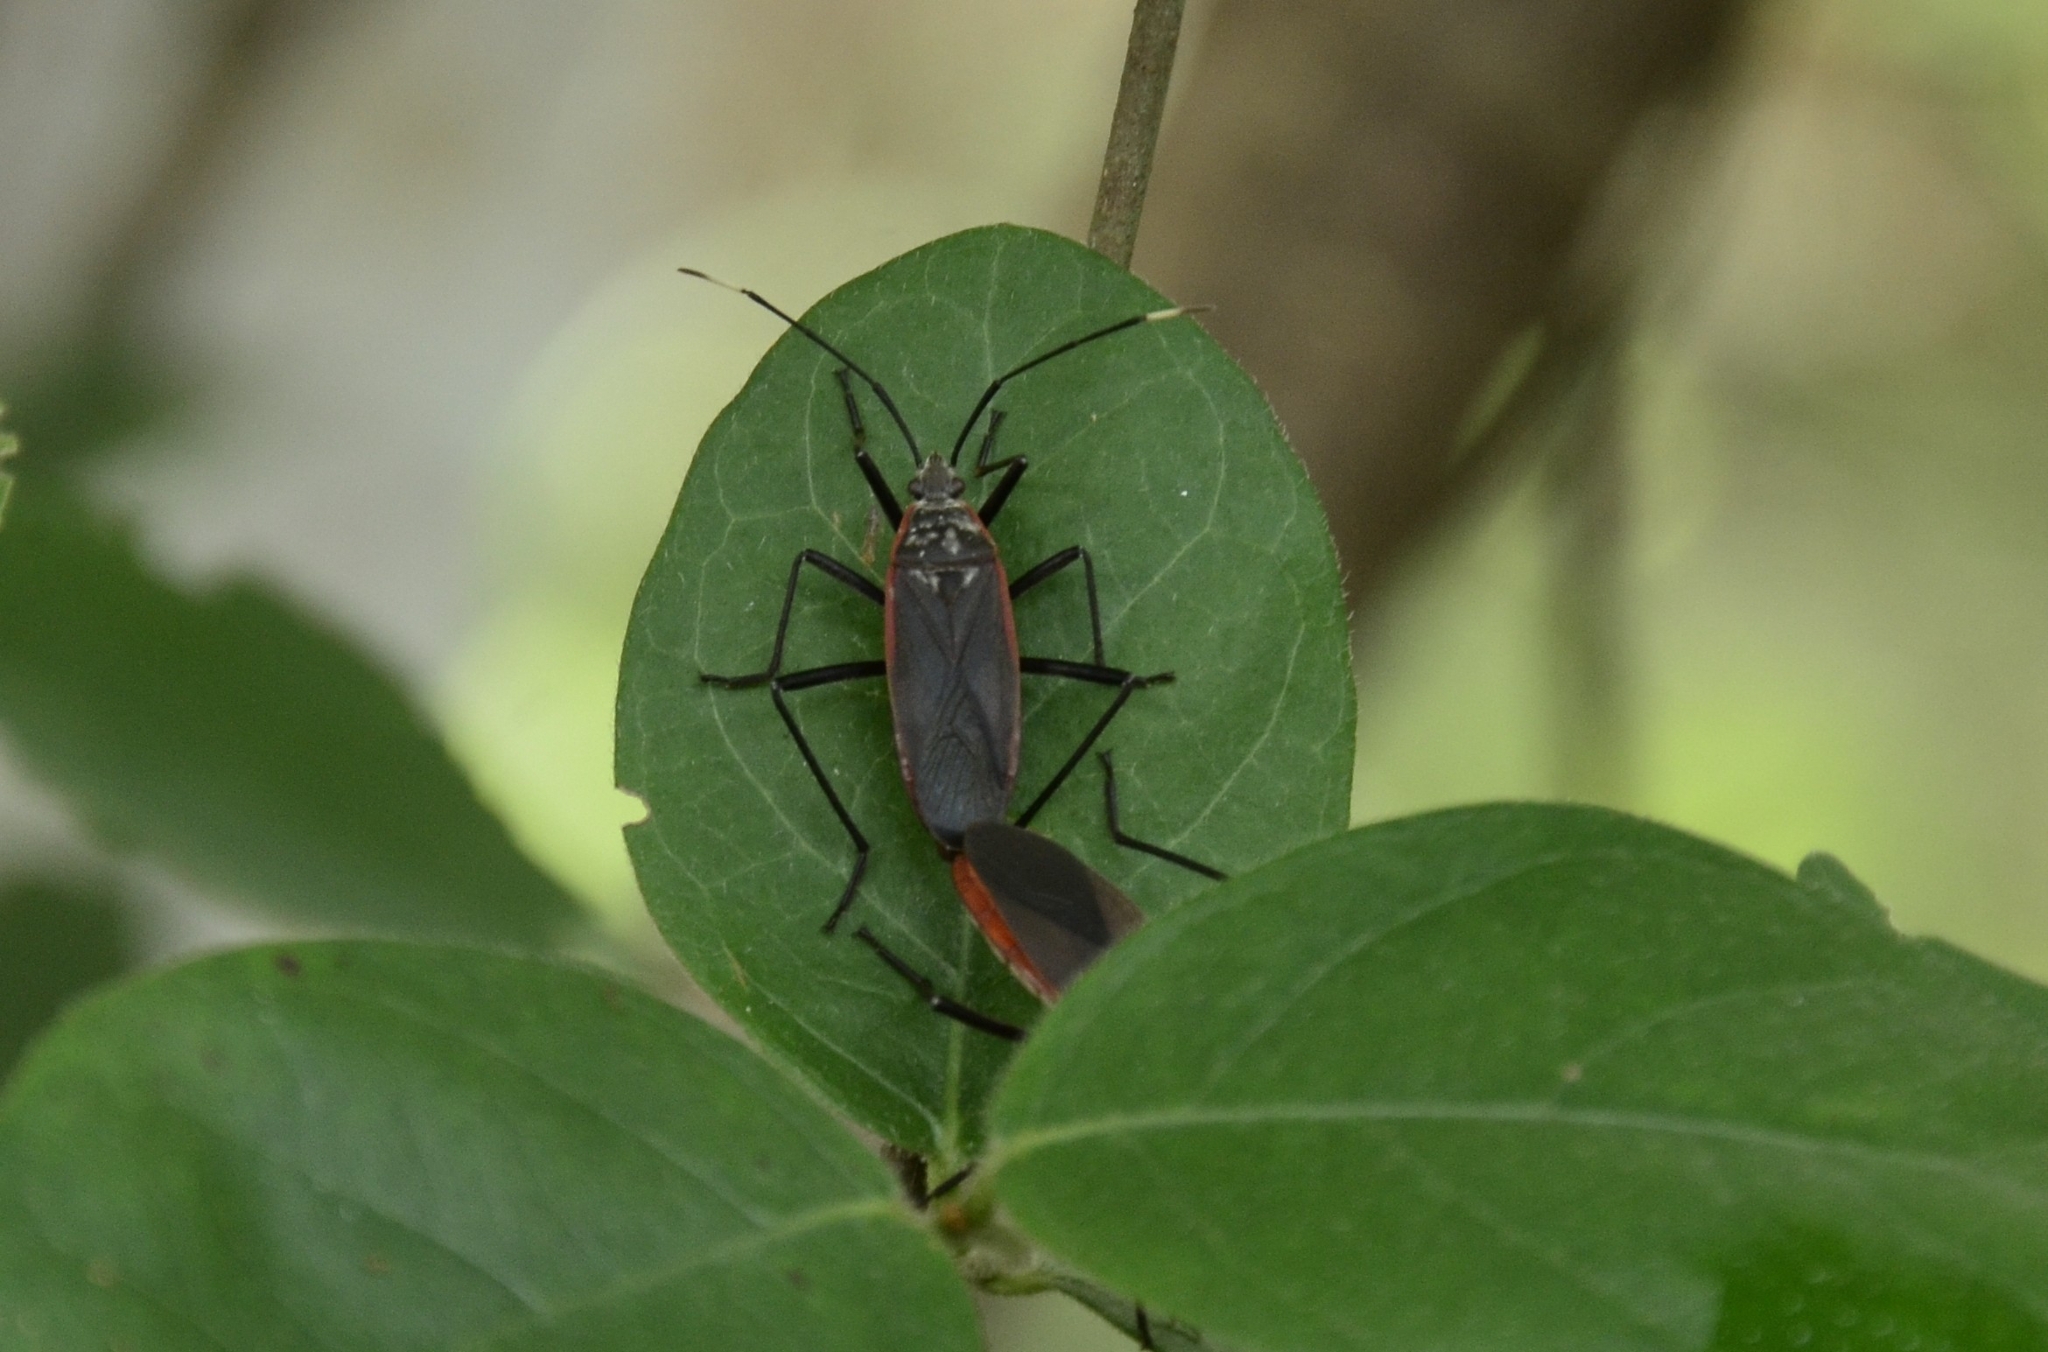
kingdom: Animalia
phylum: Arthropoda
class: Insecta
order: Hemiptera
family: Pyrrhocoridae
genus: Melamphaus
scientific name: Melamphaus
